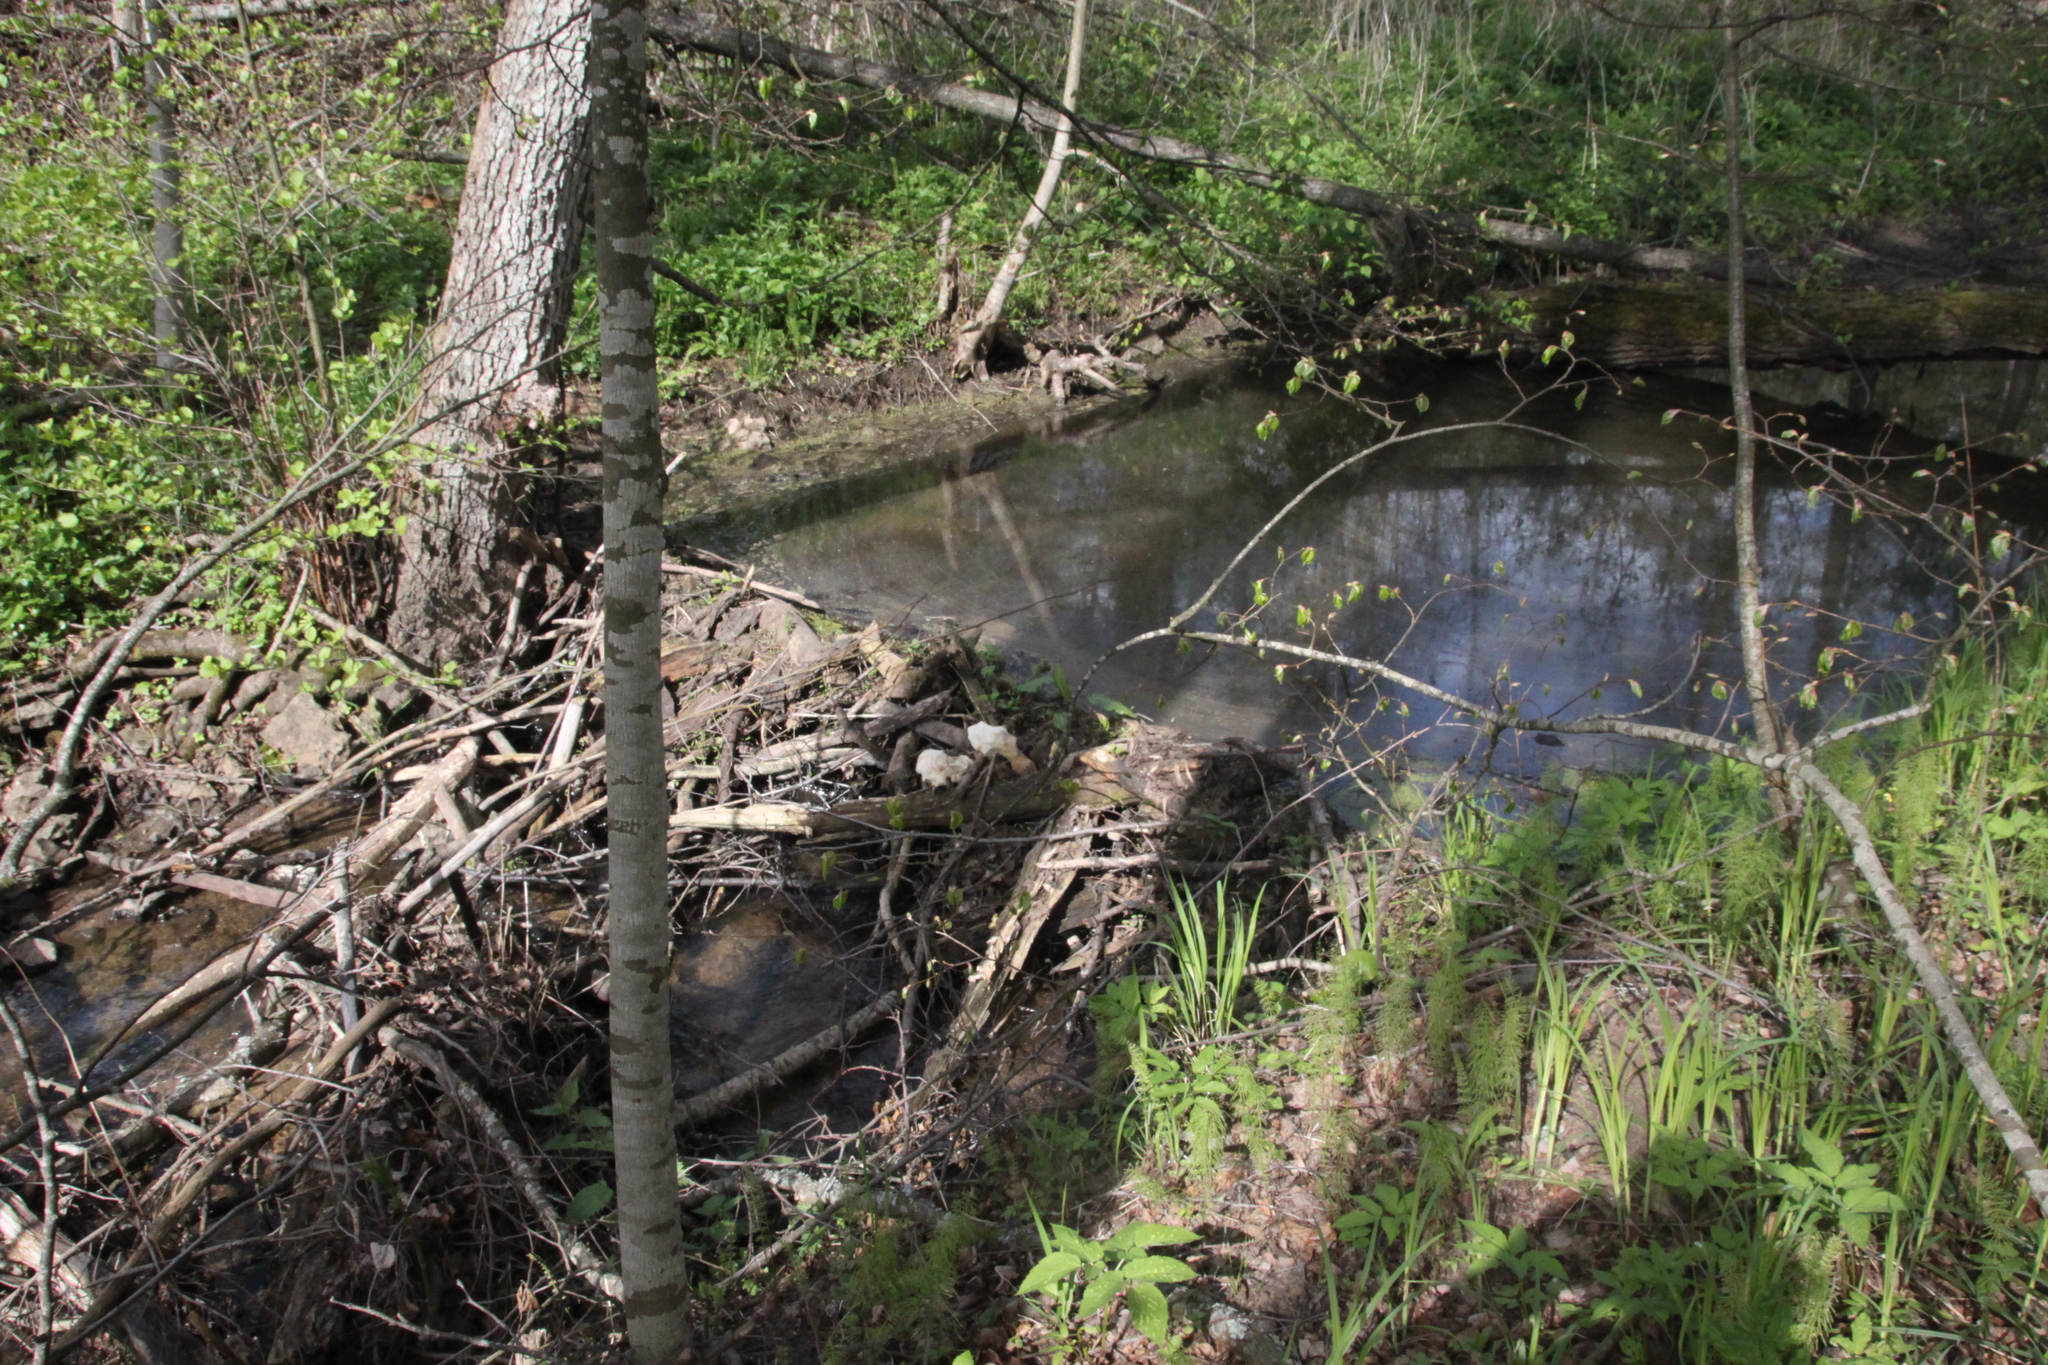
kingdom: Animalia
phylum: Chordata
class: Mammalia
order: Rodentia
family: Castoridae
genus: Castor
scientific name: Castor fiber
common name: Eurasian beaver
